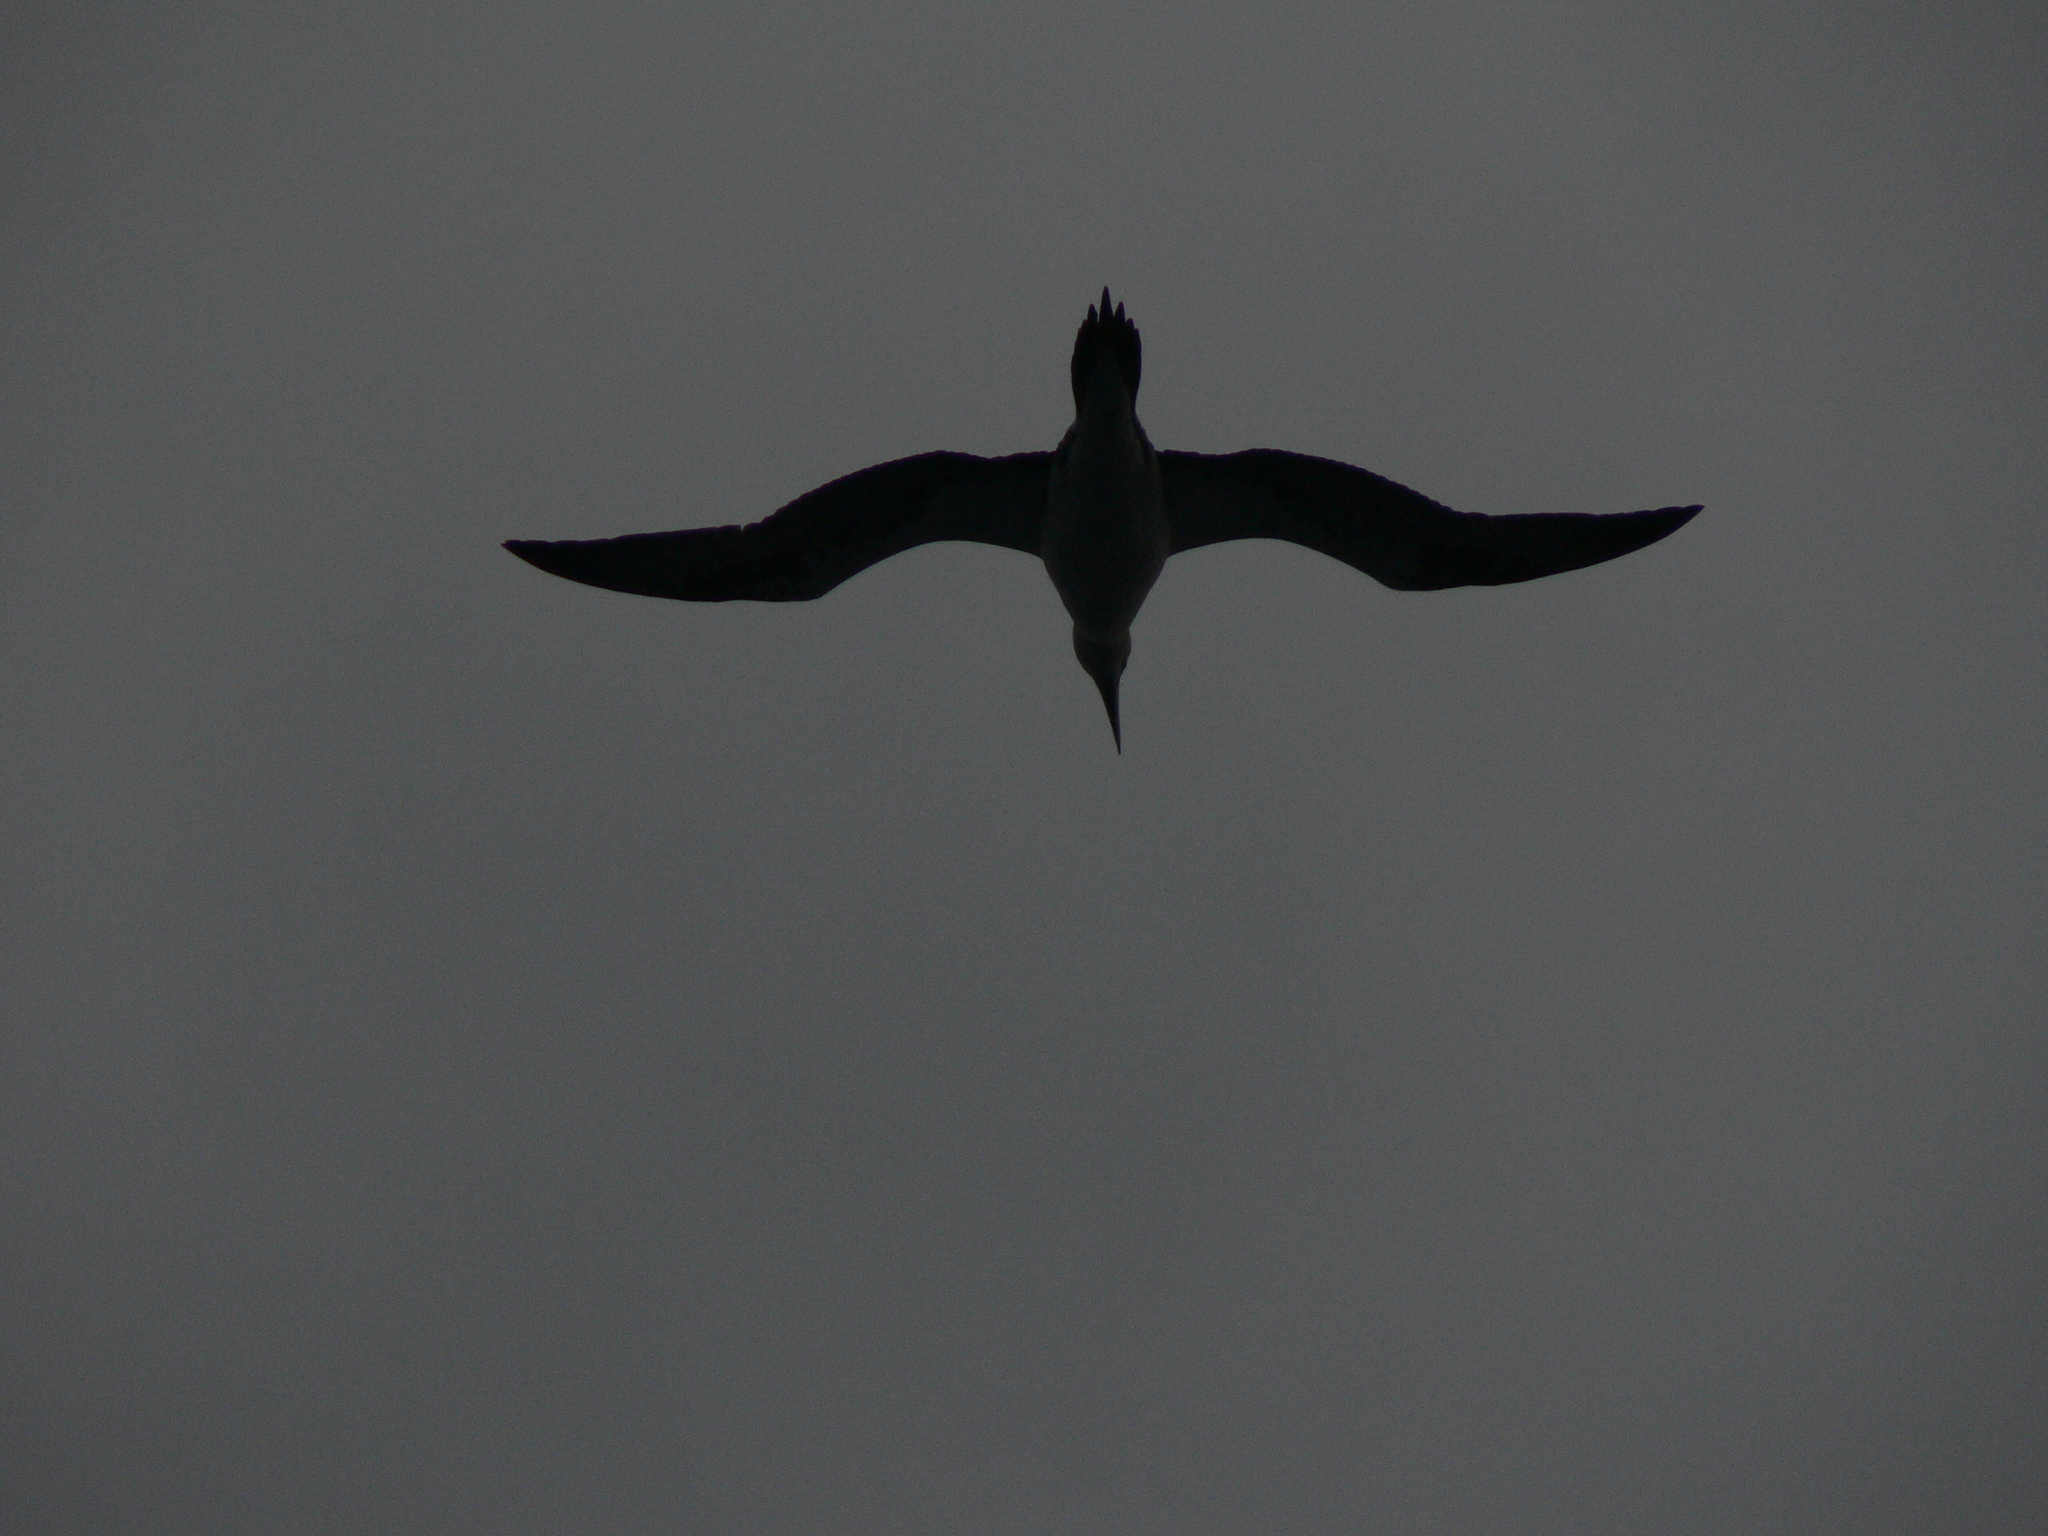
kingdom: Animalia
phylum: Chordata
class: Aves
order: Suliformes
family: Sulidae
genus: Morus
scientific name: Morus bassanus
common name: Northern gannet
